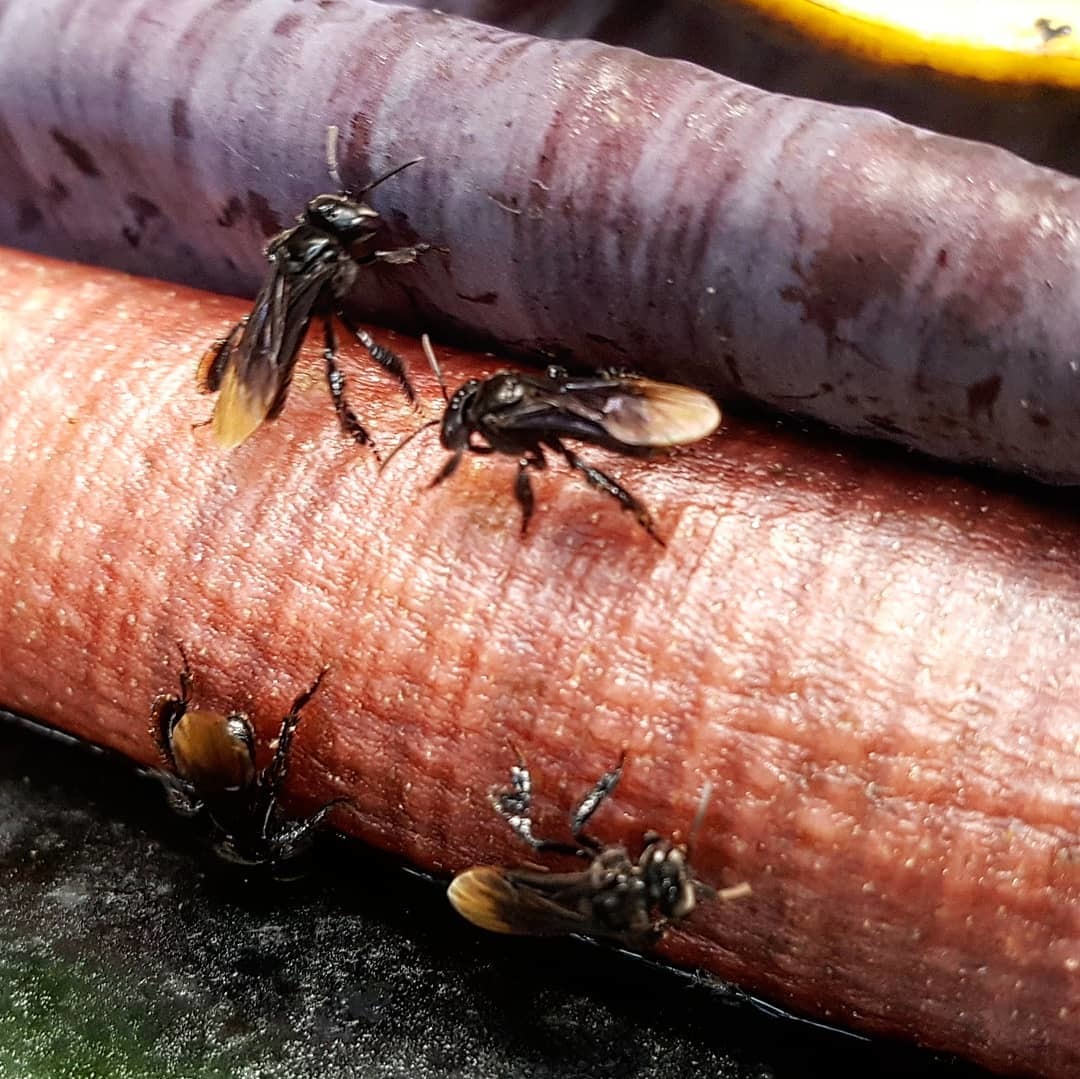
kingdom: Animalia
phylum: Arthropoda
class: Insecta
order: Hymenoptera
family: Apidae
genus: Frieseomelitta
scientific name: Frieseomelitta nigra
